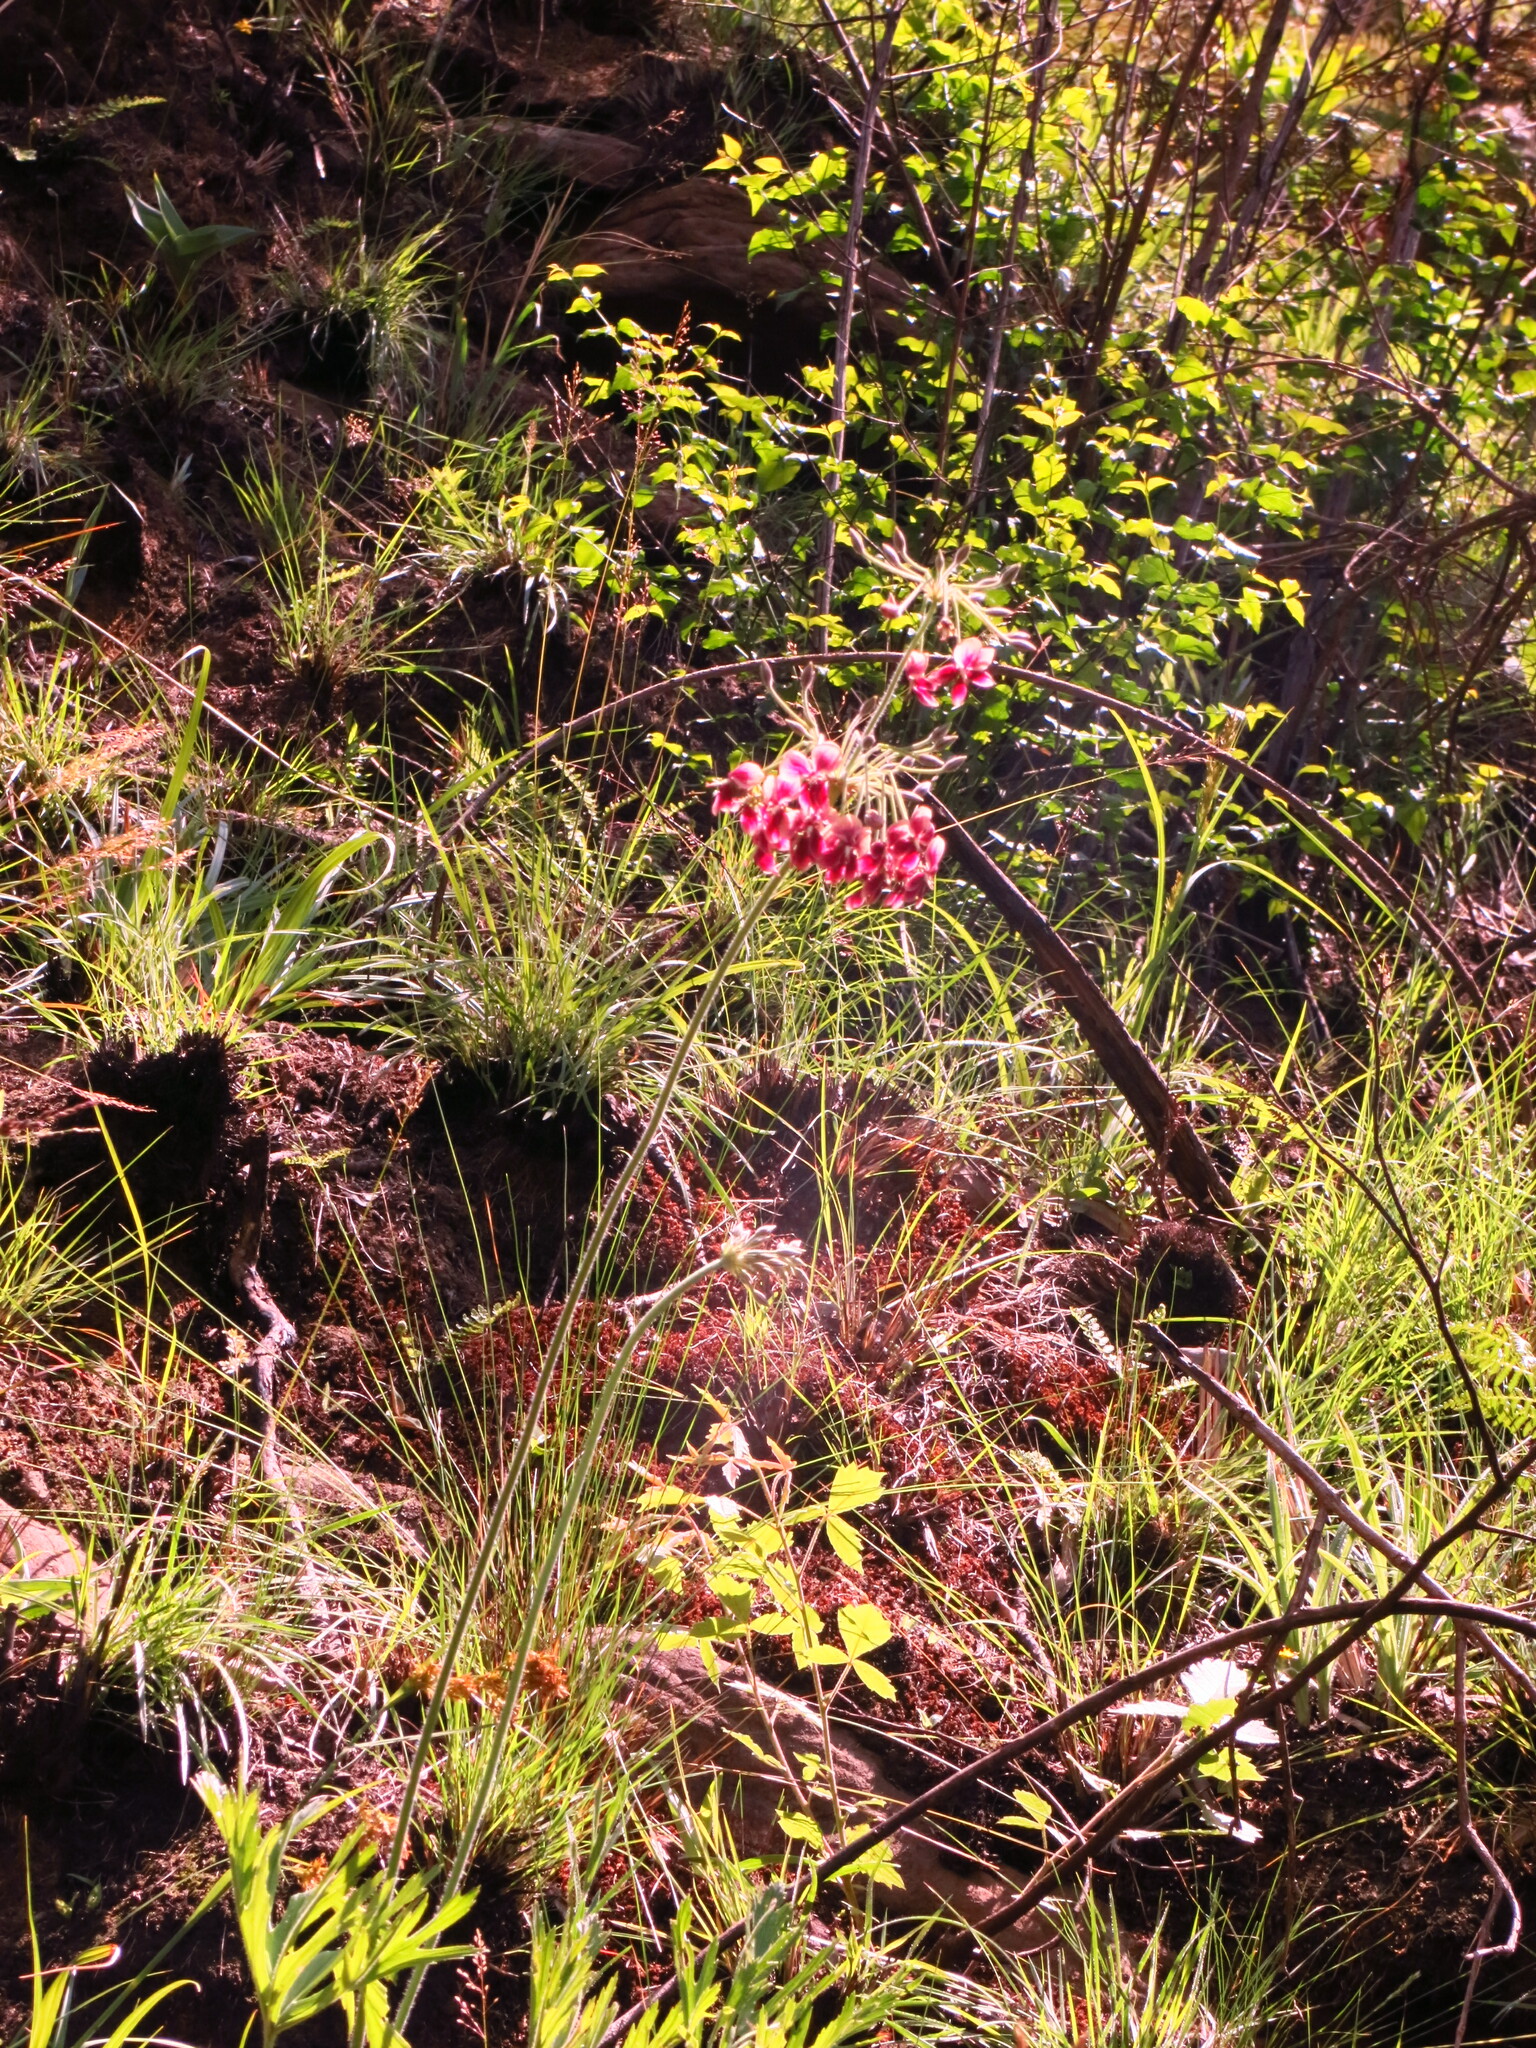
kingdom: Plantae
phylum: Tracheophyta
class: Magnoliopsida
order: Geraniales
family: Geraniaceae
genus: Pelargonium
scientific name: Pelargonium luridum
